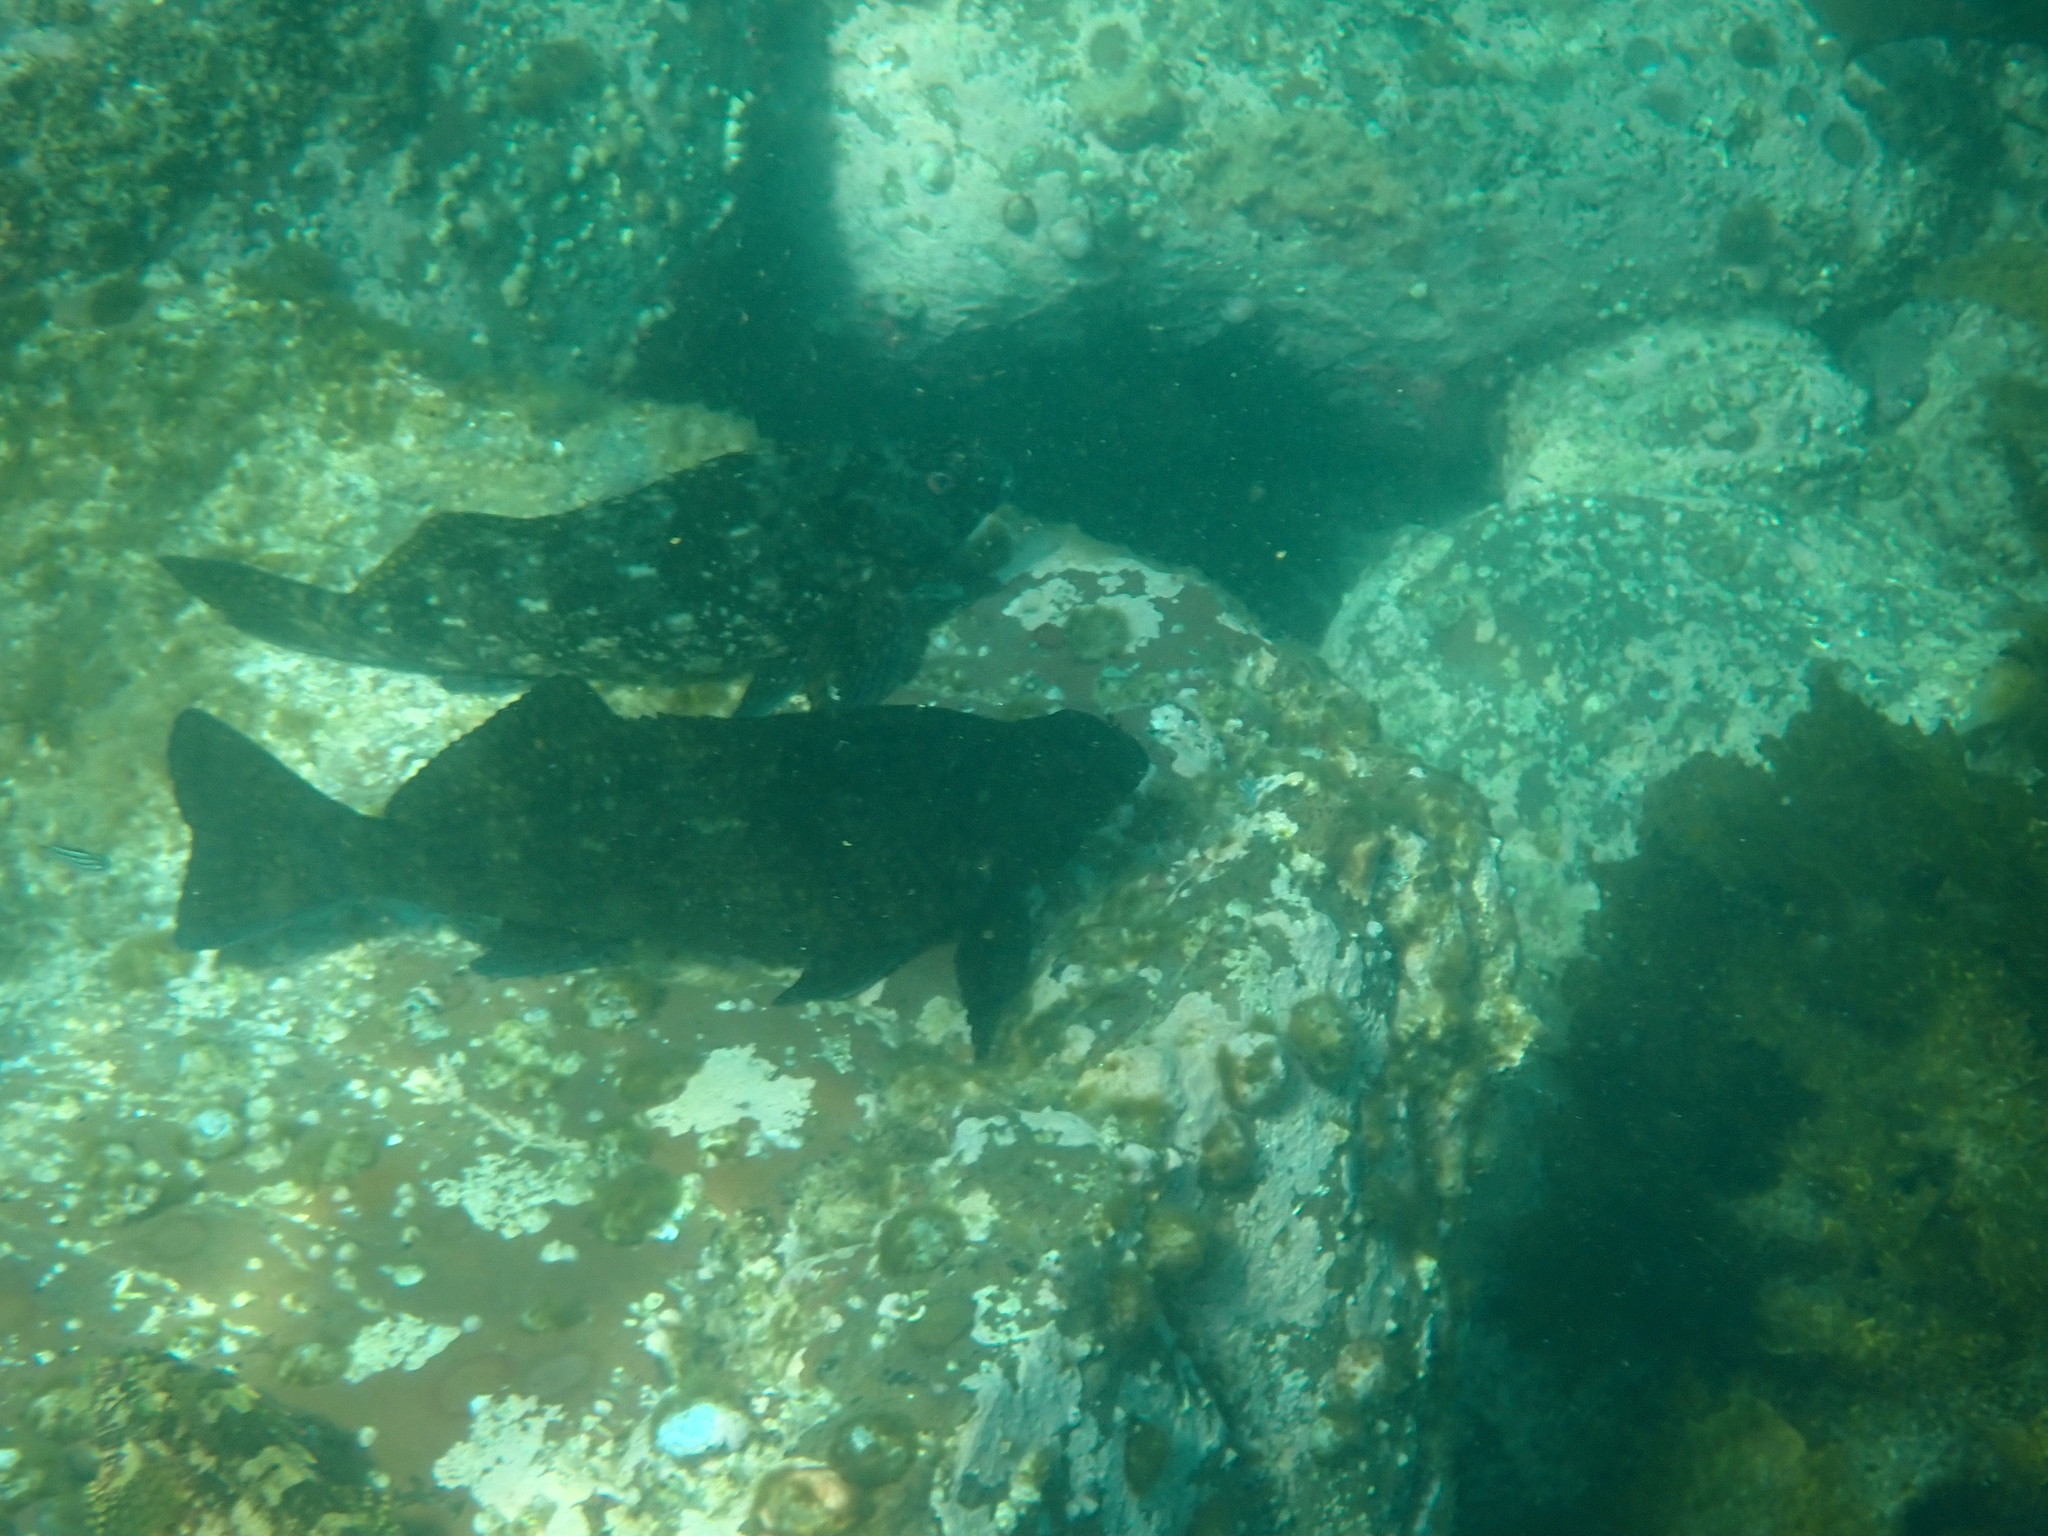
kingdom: Animalia
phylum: Chordata
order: Perciformes
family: Aplodactylidae
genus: Aplodactylus
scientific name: Aplodactylus lophodon
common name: Cockatoo fish
